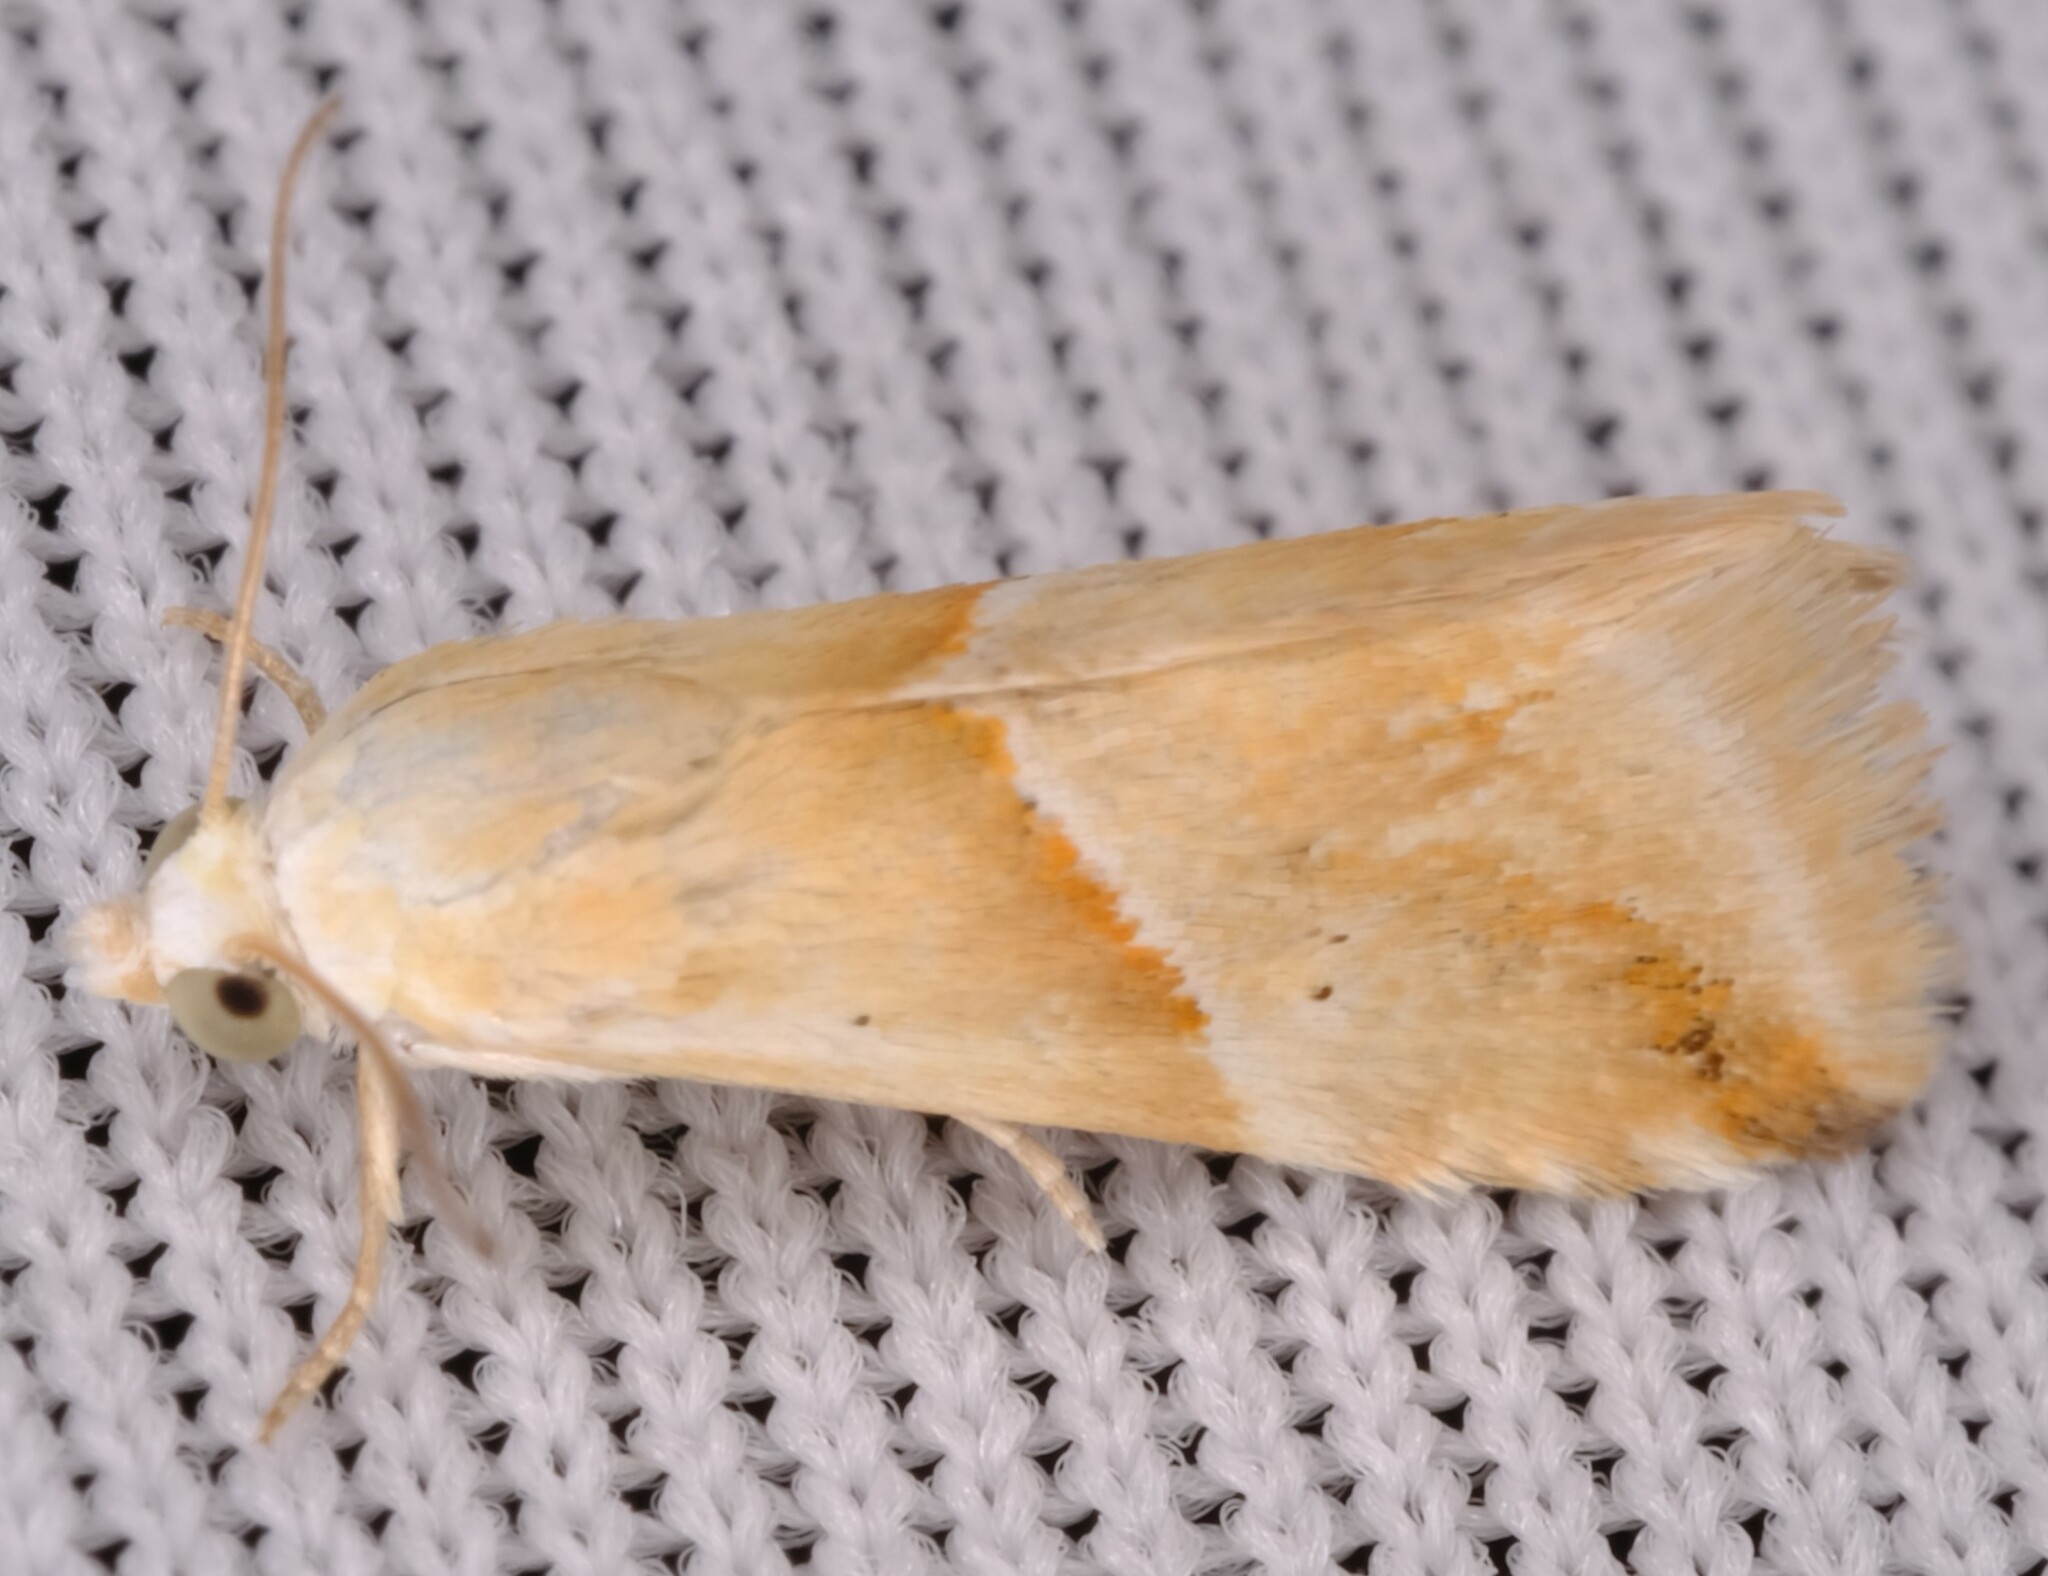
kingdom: Animalia
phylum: Arthropoda
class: Insecta
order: Lepidoptera
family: Noctuidae
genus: Eublemma
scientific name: Eublemma inconspicua
